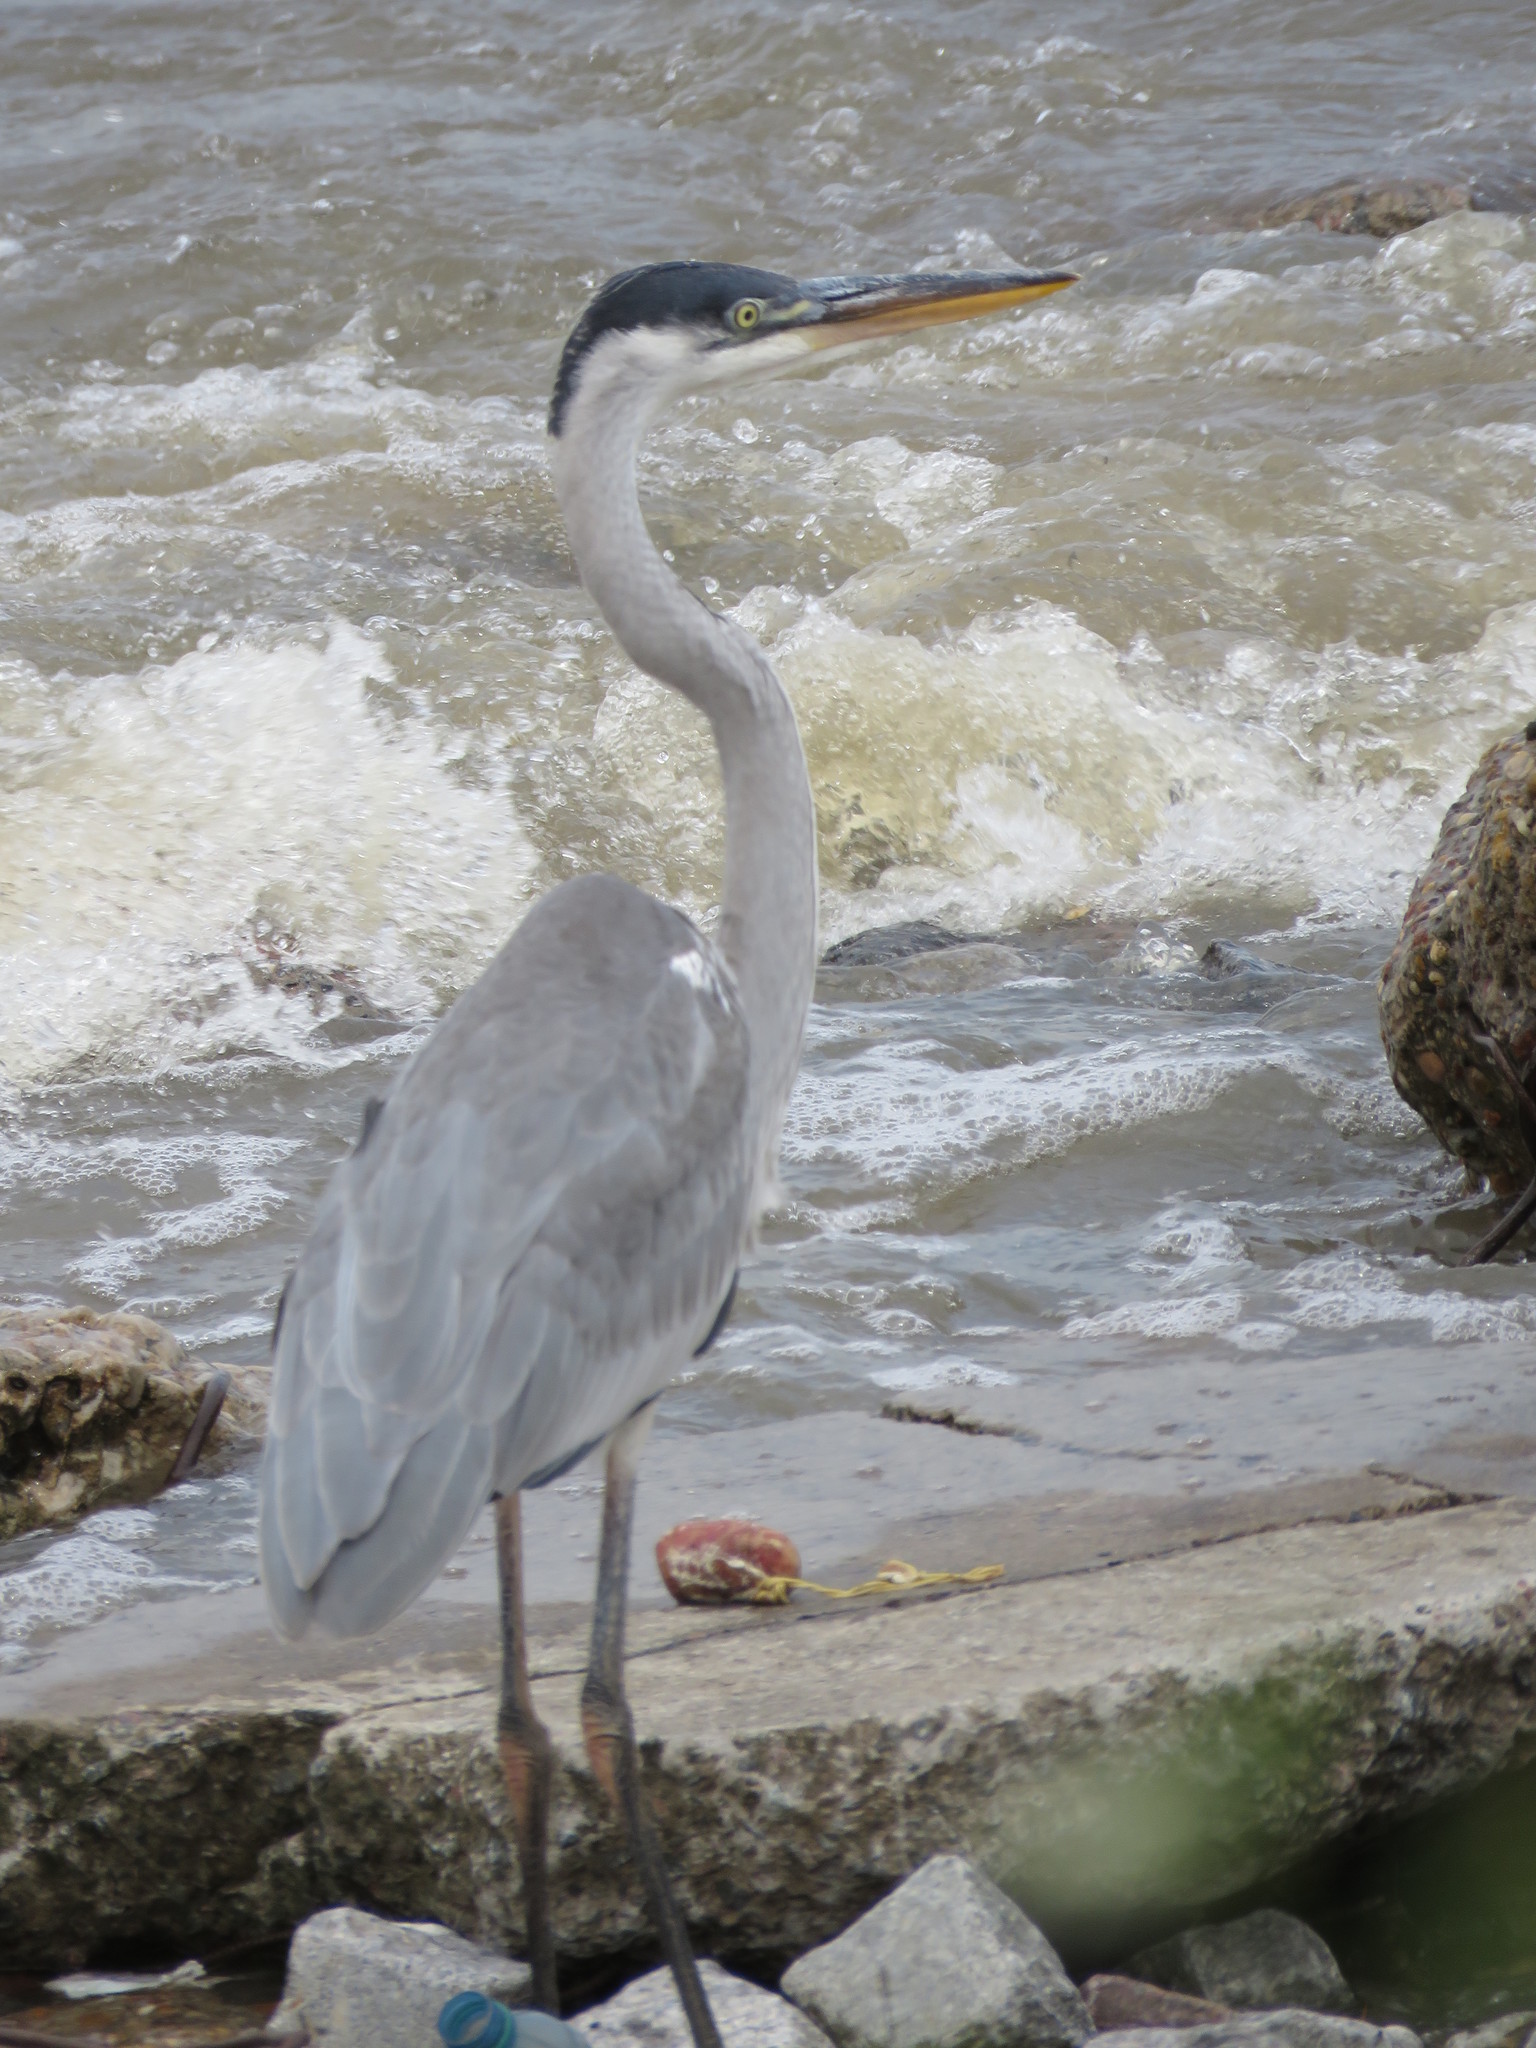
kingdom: Animalia
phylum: Chordata
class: Aves
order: Pelecaniformes
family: Ardeidae
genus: Ardea
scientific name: Ardea cocoi
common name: Cocoi heron
